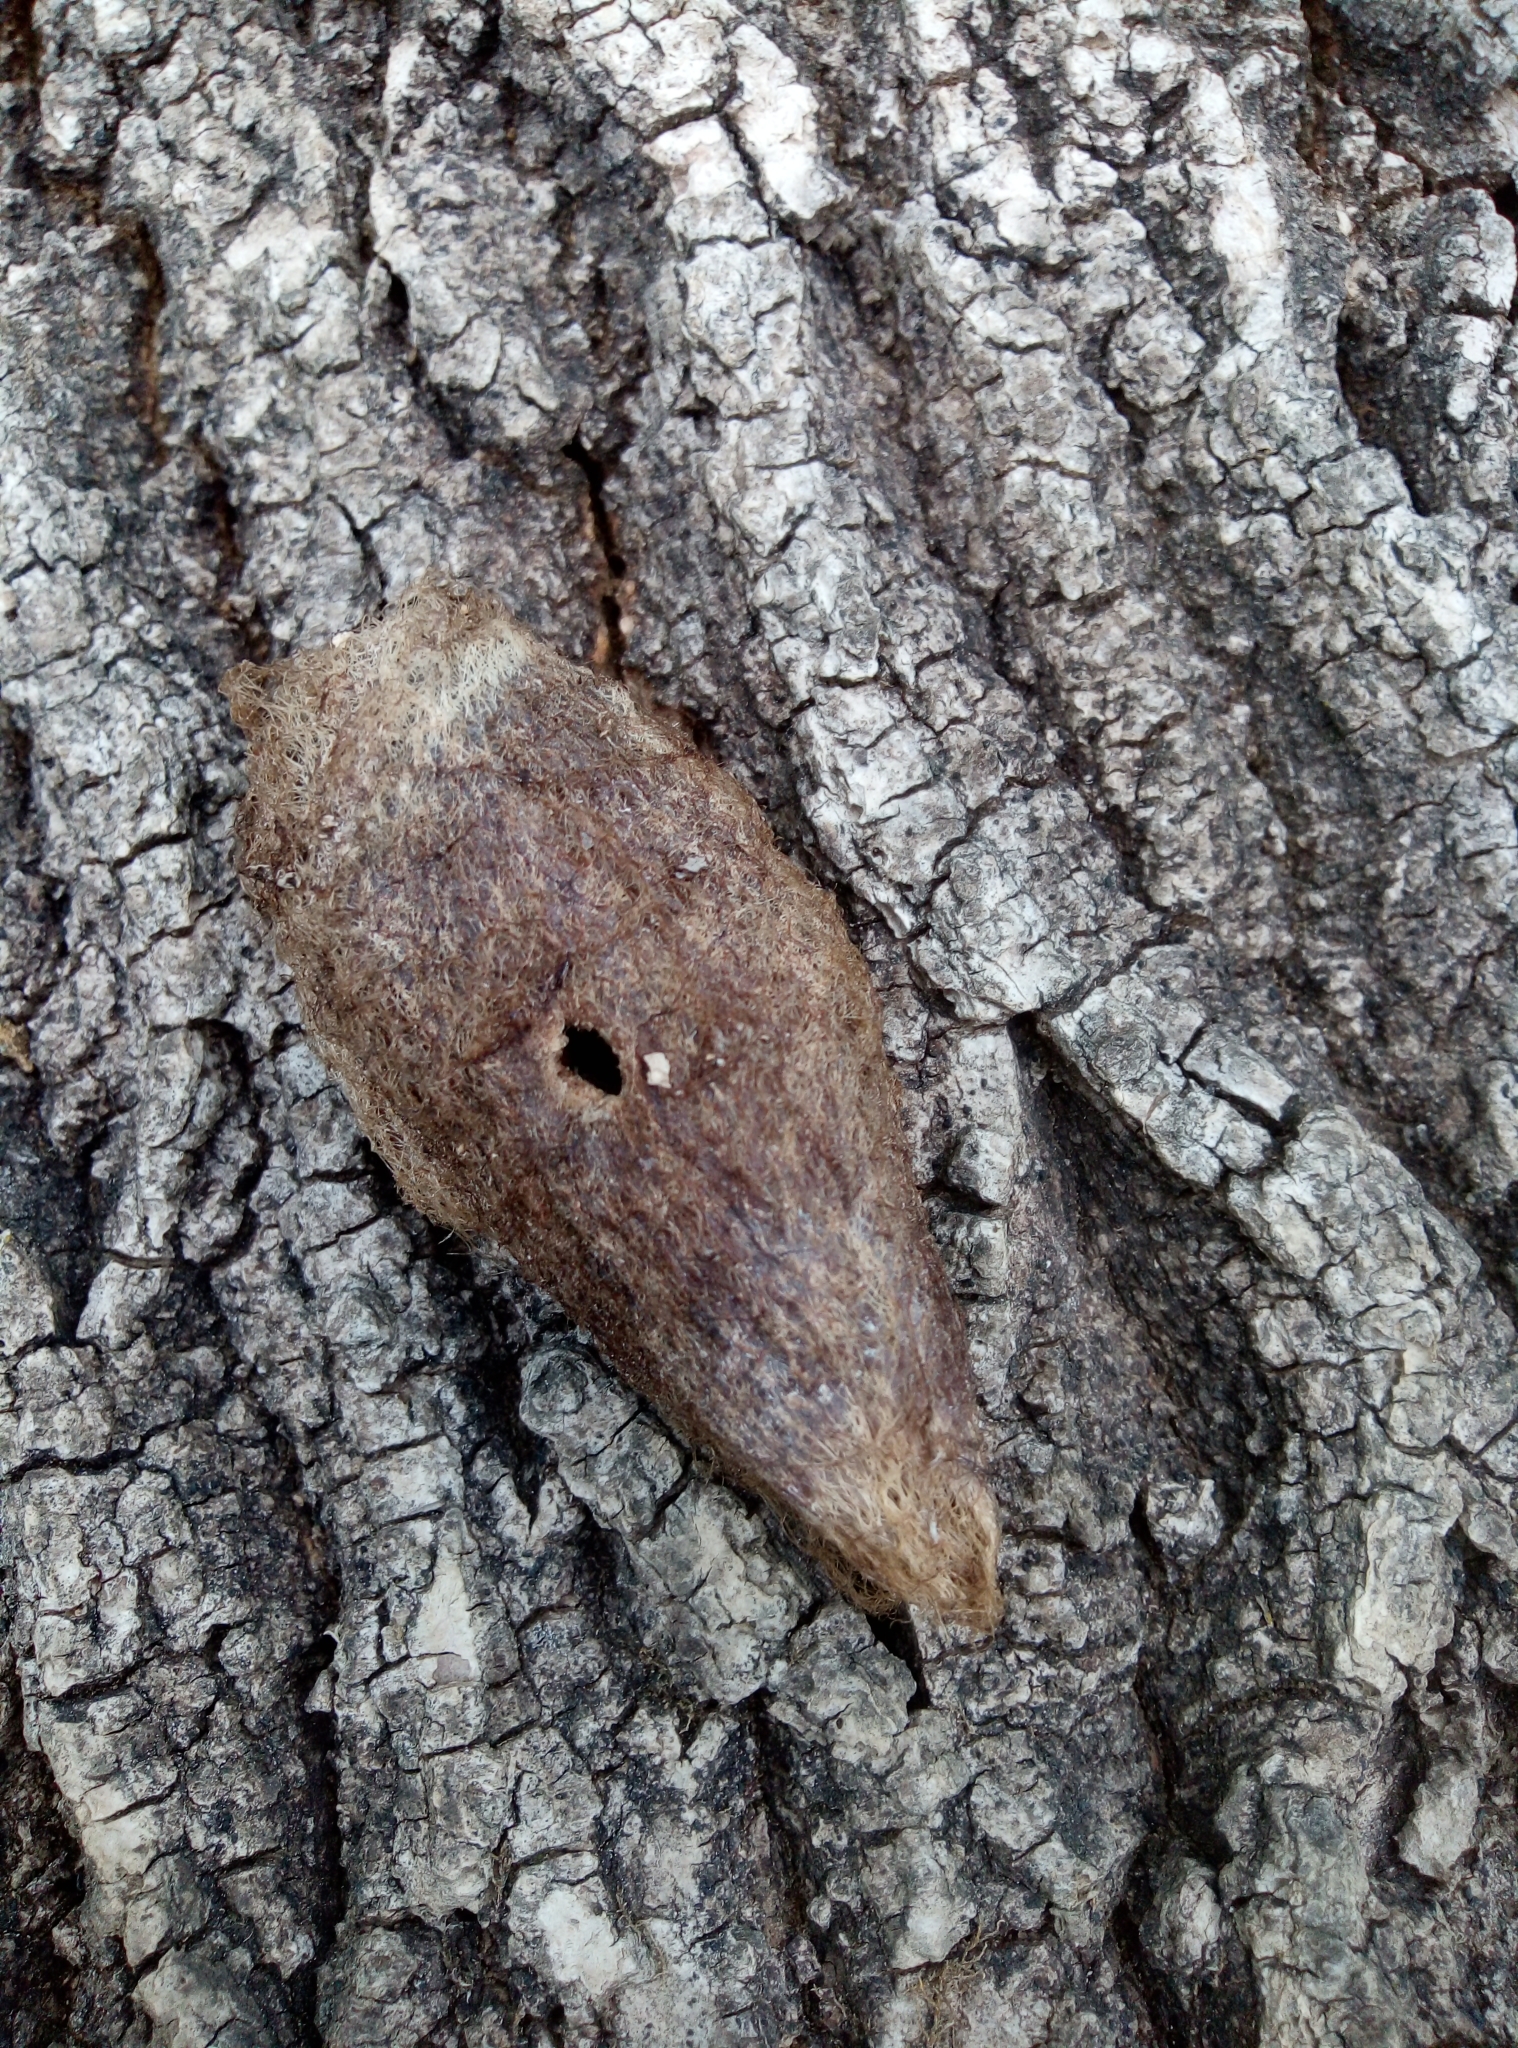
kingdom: Animalia
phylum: Arthropoda
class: Insecta
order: Lepidoptera
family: Saturniidae
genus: Saturnia
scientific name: Saturnia pyri
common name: Great peacock moth
